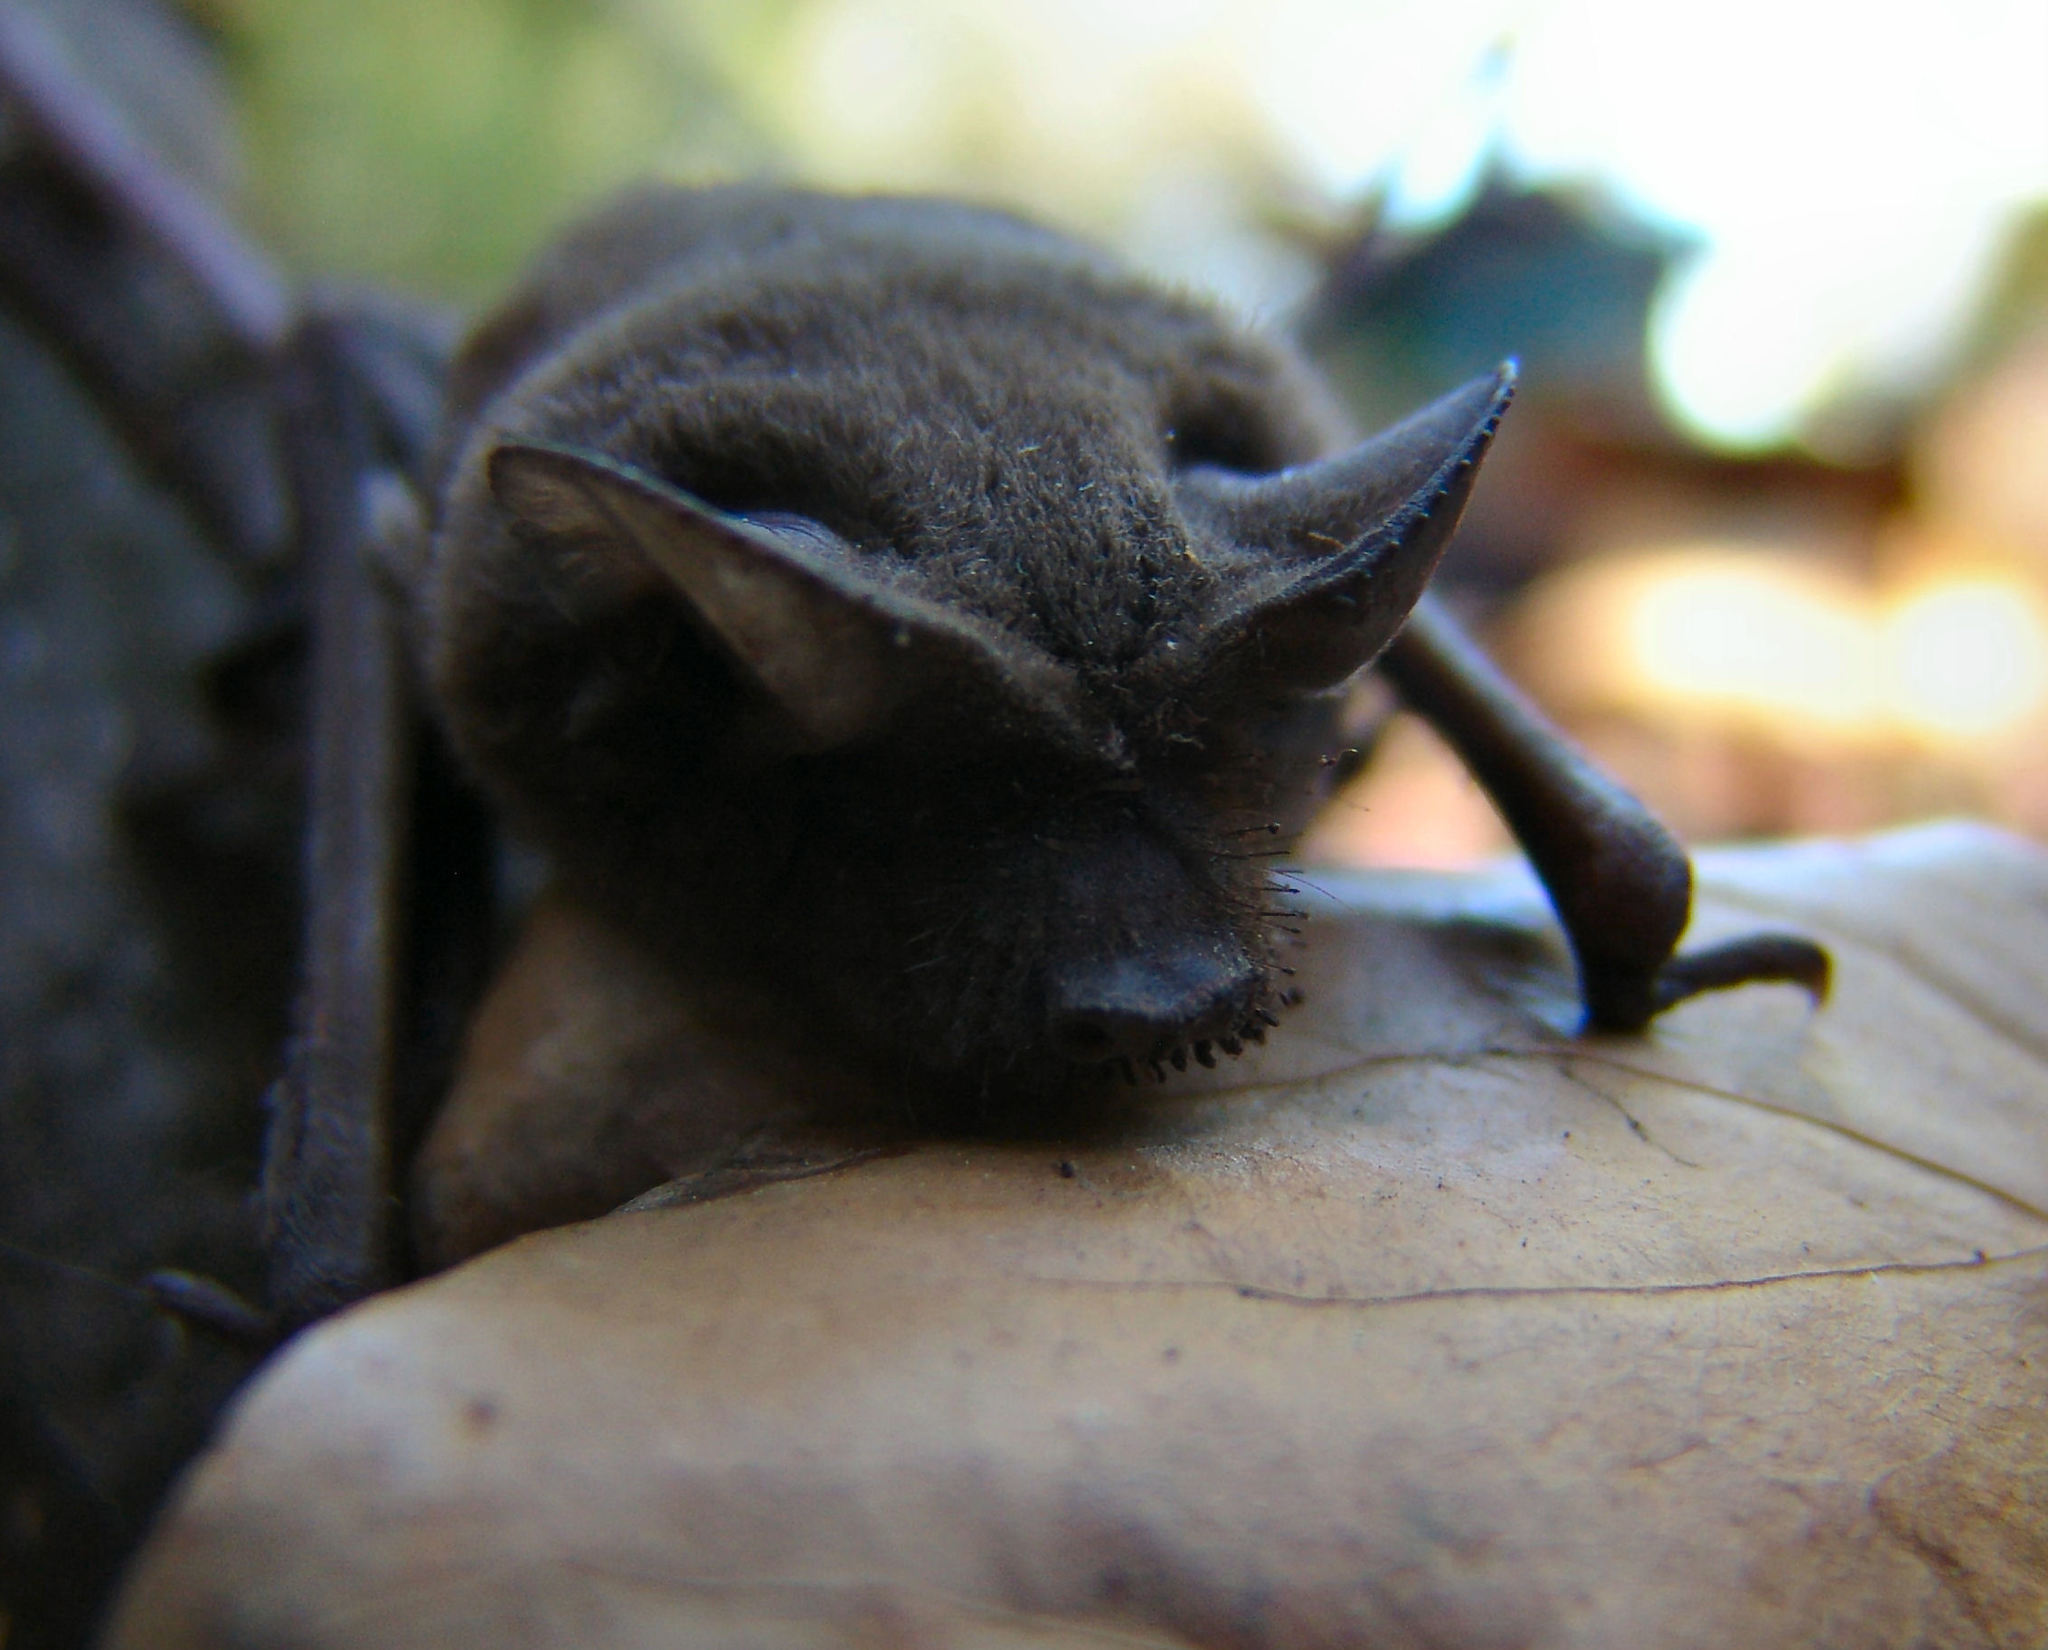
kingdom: Animalia
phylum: Chordata
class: Mammalia
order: Chiroptera
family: Molossidae
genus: Tadarida
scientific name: Tadarida brasiliensis
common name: Mexican free-tailed bat
